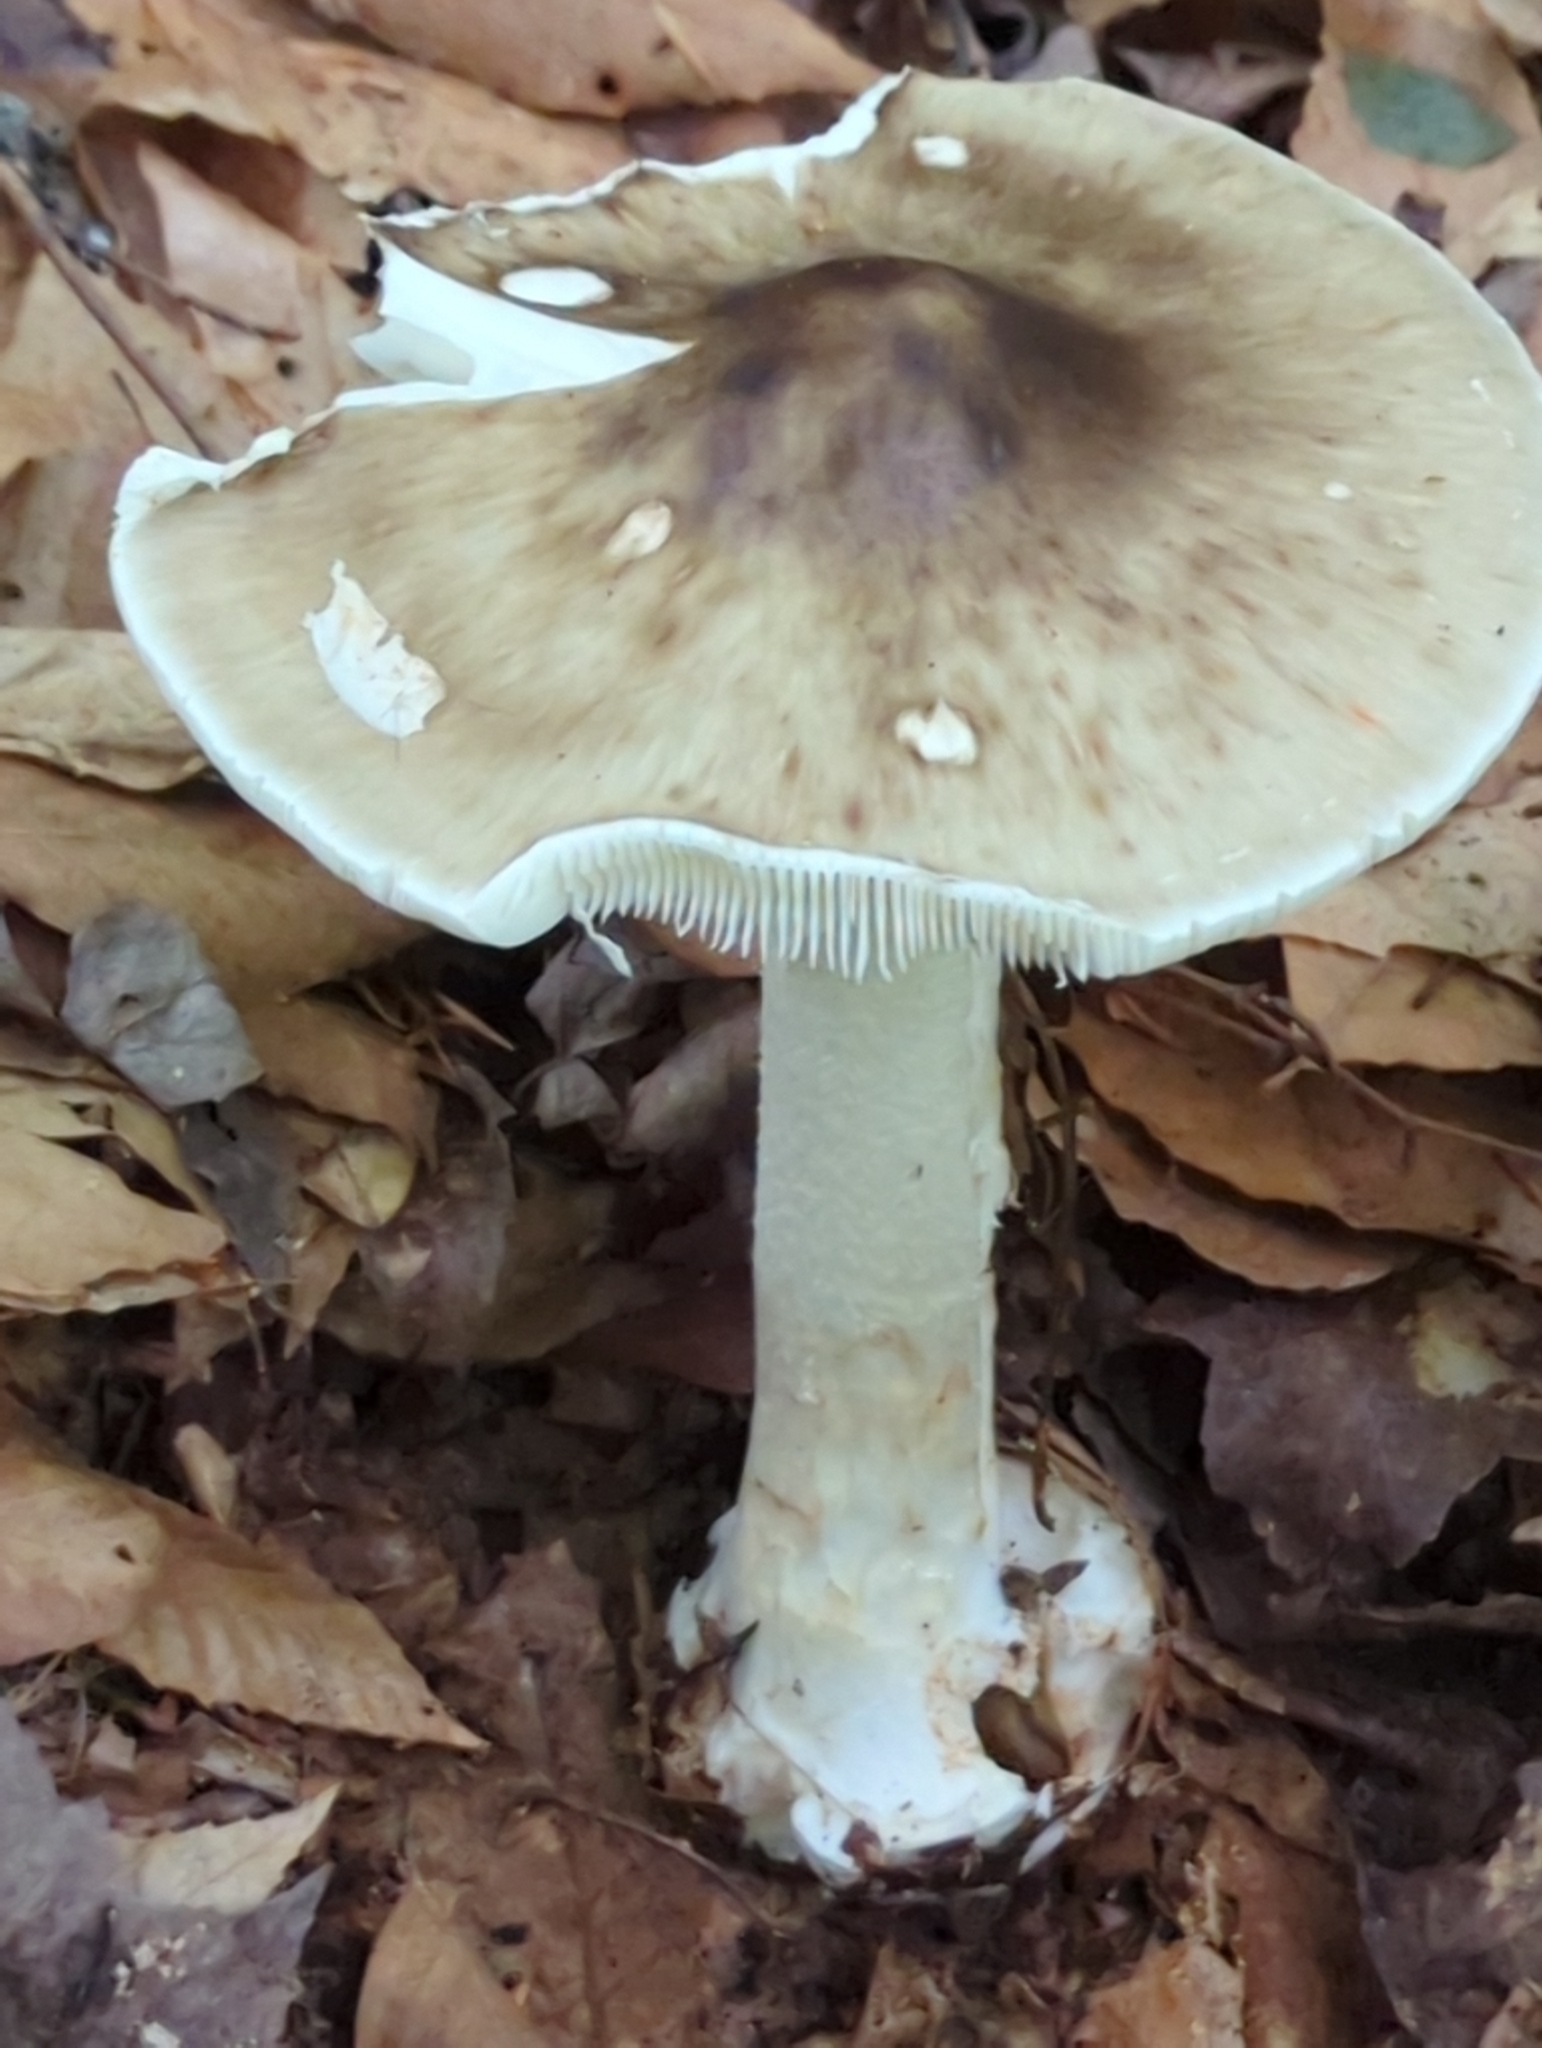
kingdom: Fungi
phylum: Basidiomycota
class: Agaricomycetes
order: Agaricales
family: Amanitaceae
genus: Amanita
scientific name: Amanita brunnescens
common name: Brown american star-footed amanita
